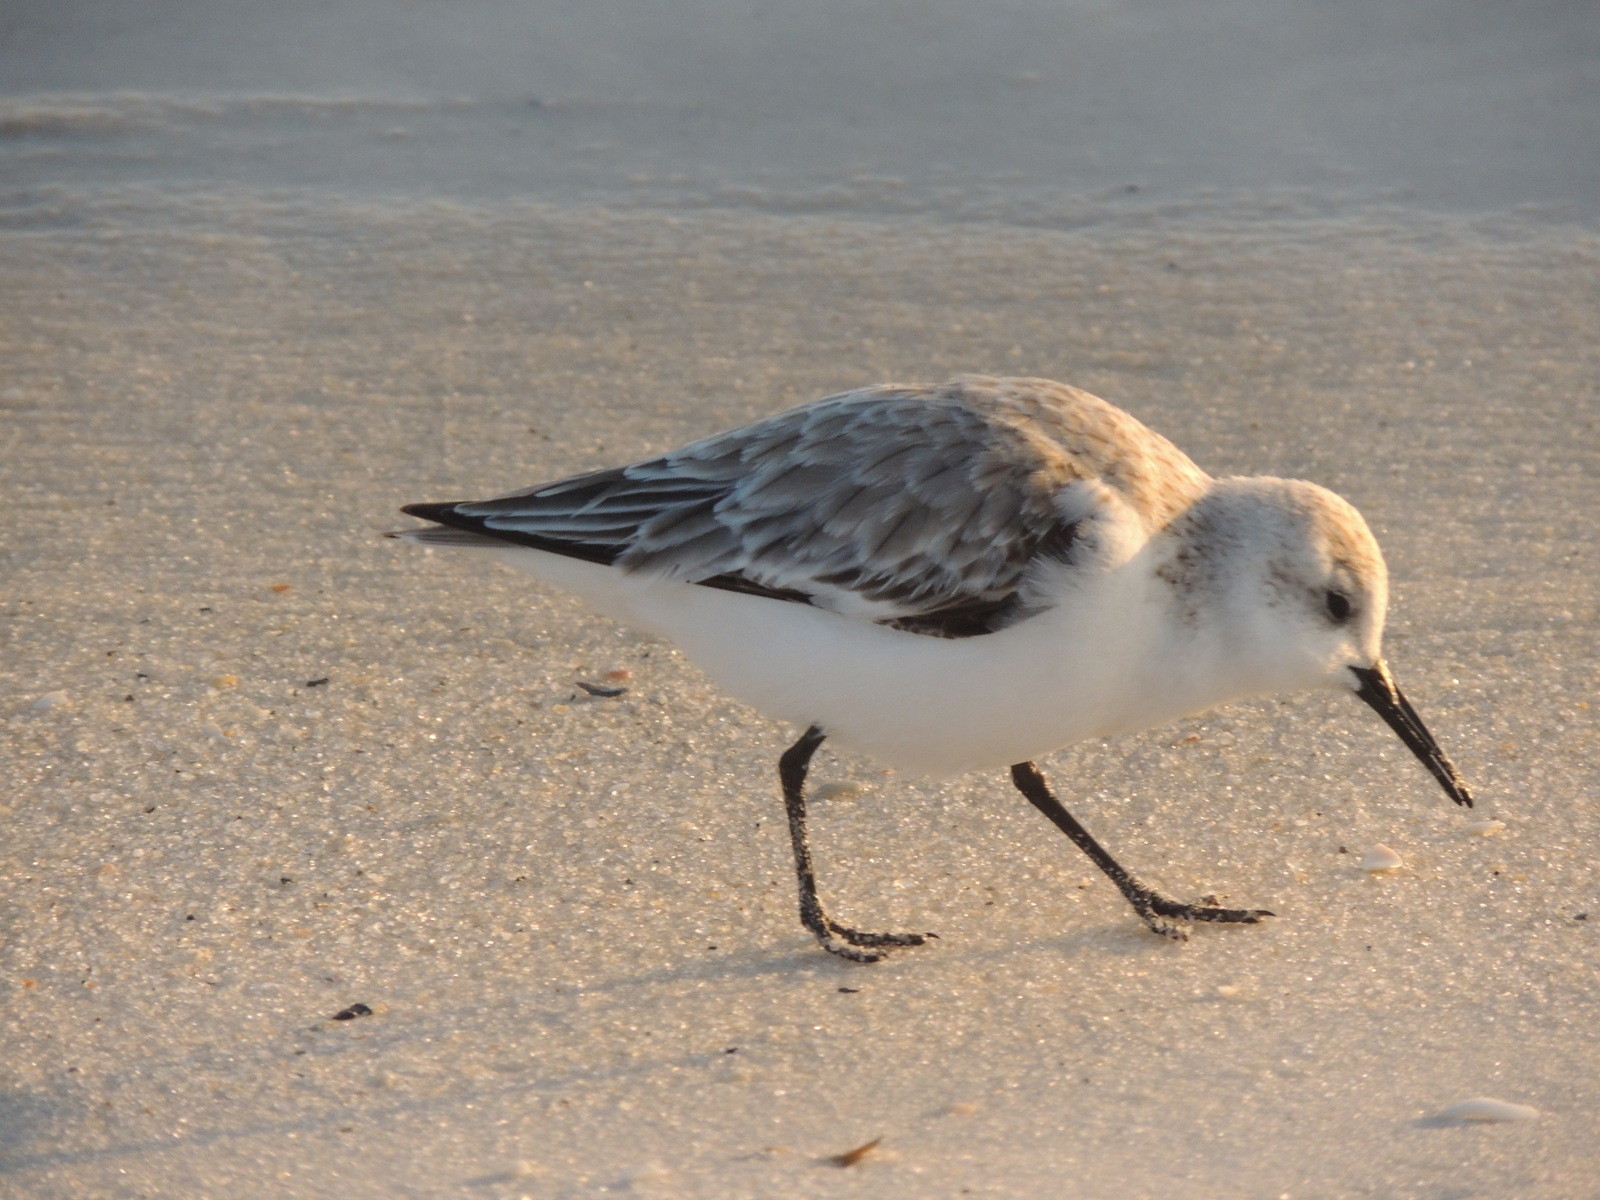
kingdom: Animalia
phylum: Chordata
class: Aves
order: Charadriiformes
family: Scolopacidae
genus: Calidris
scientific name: Calidris alba
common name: Sanderling
